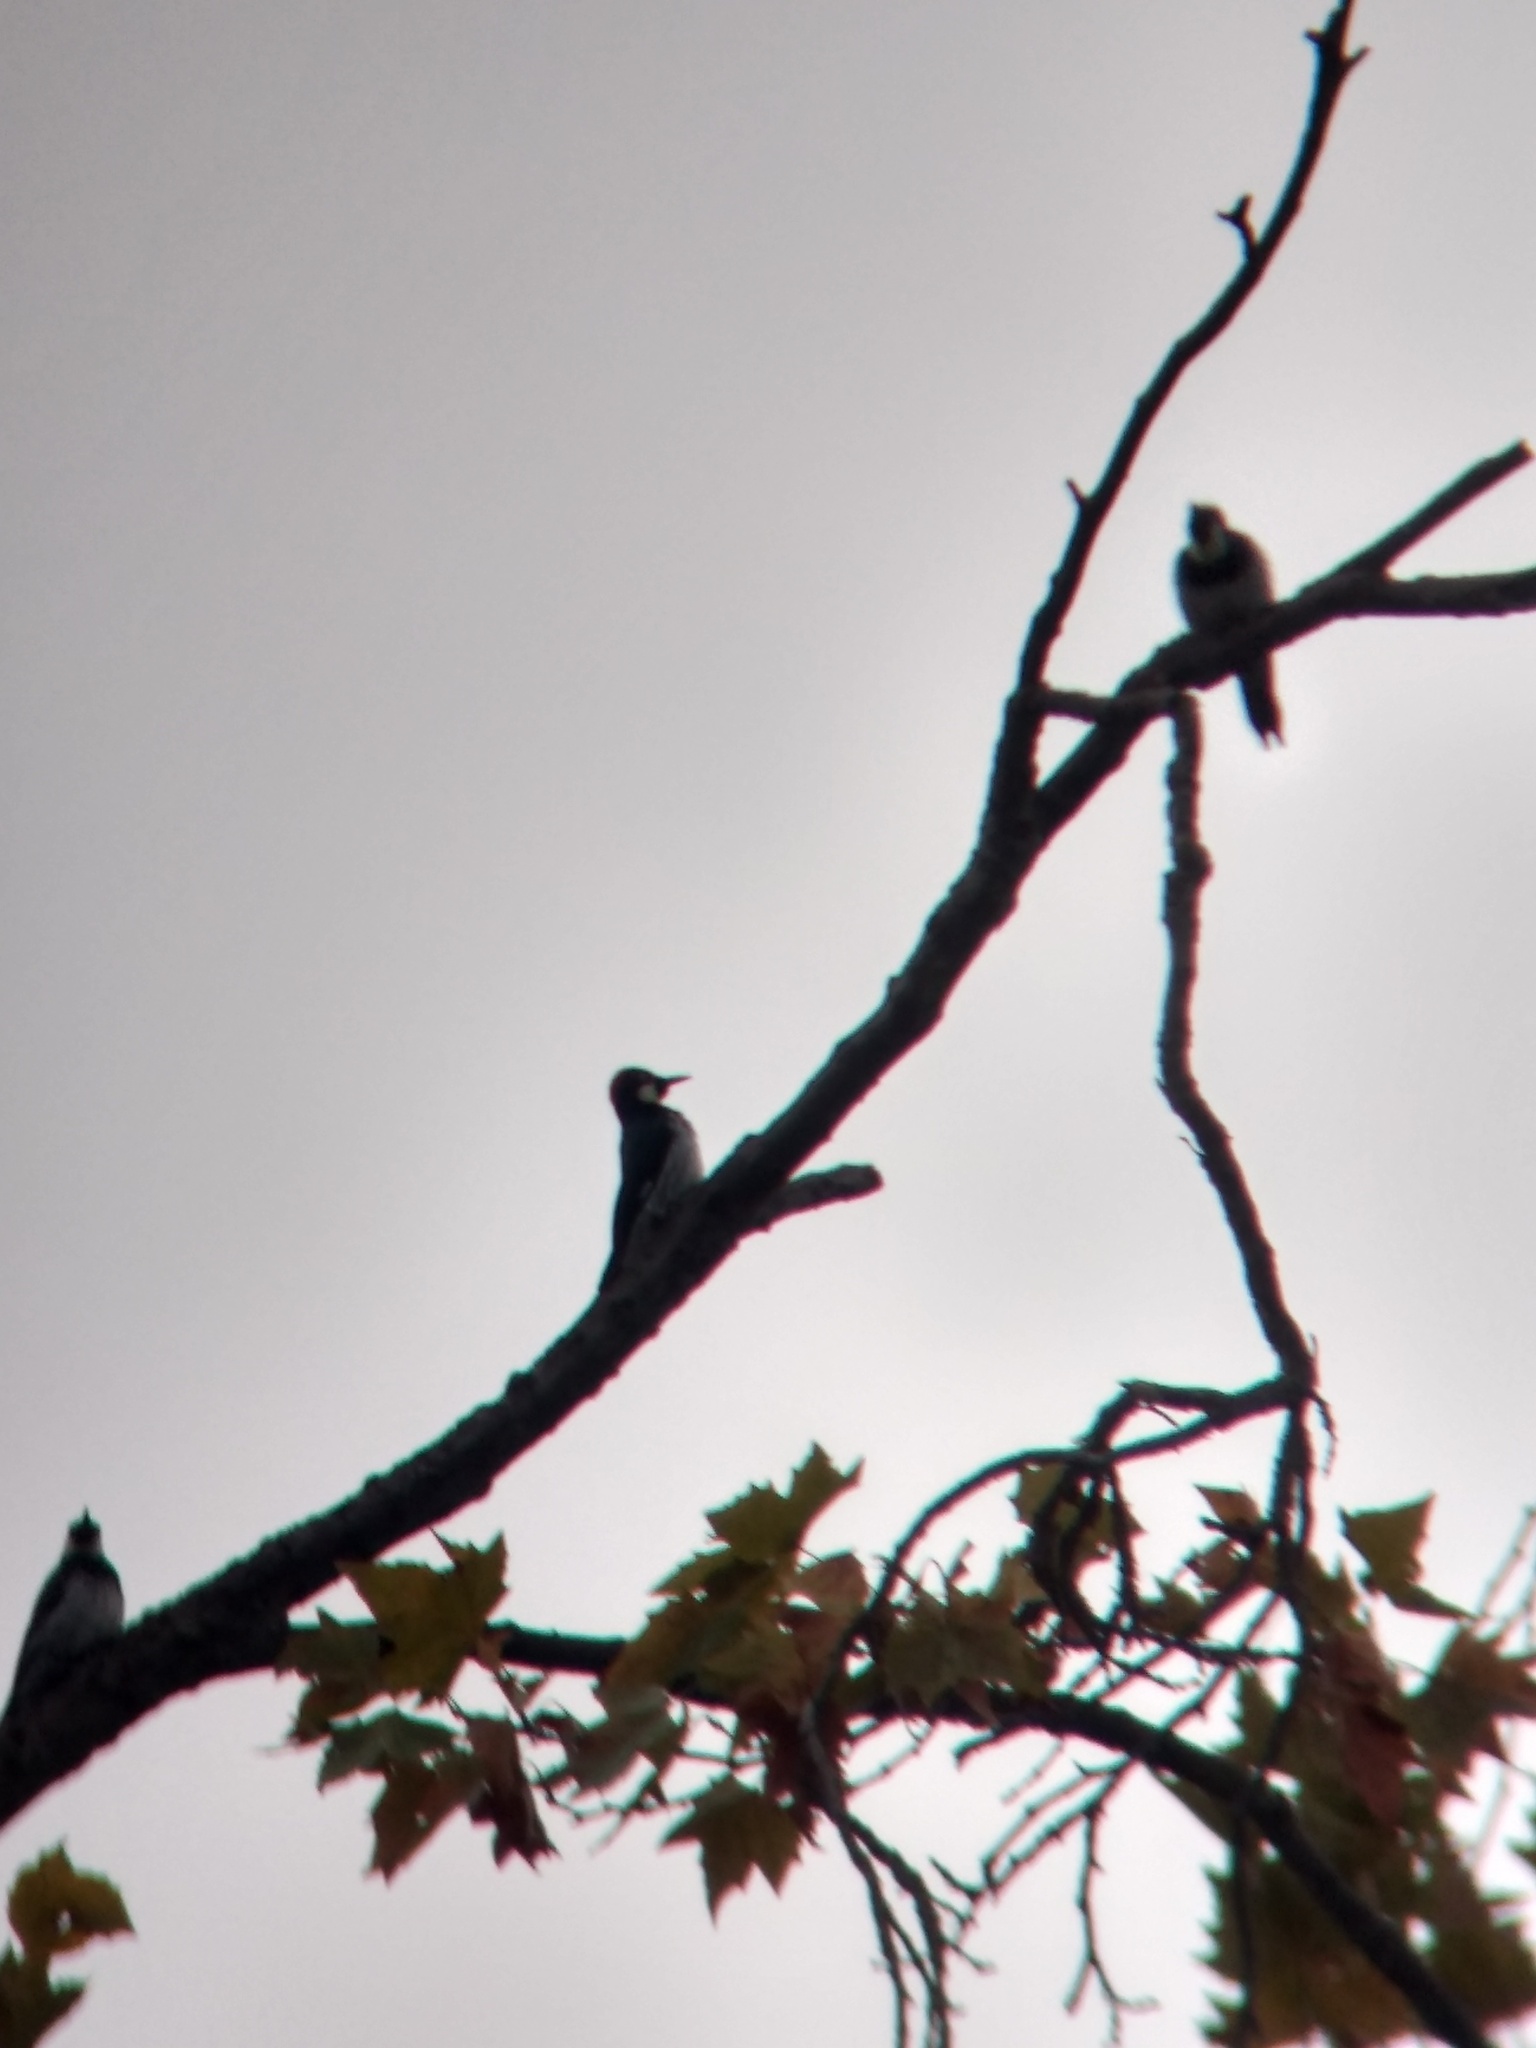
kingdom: Animalia
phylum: Chordata
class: Aves
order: Piciformes
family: Picidae
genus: Melanerpes
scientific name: Melanerpes formicivorus
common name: Acorn woodpecker
